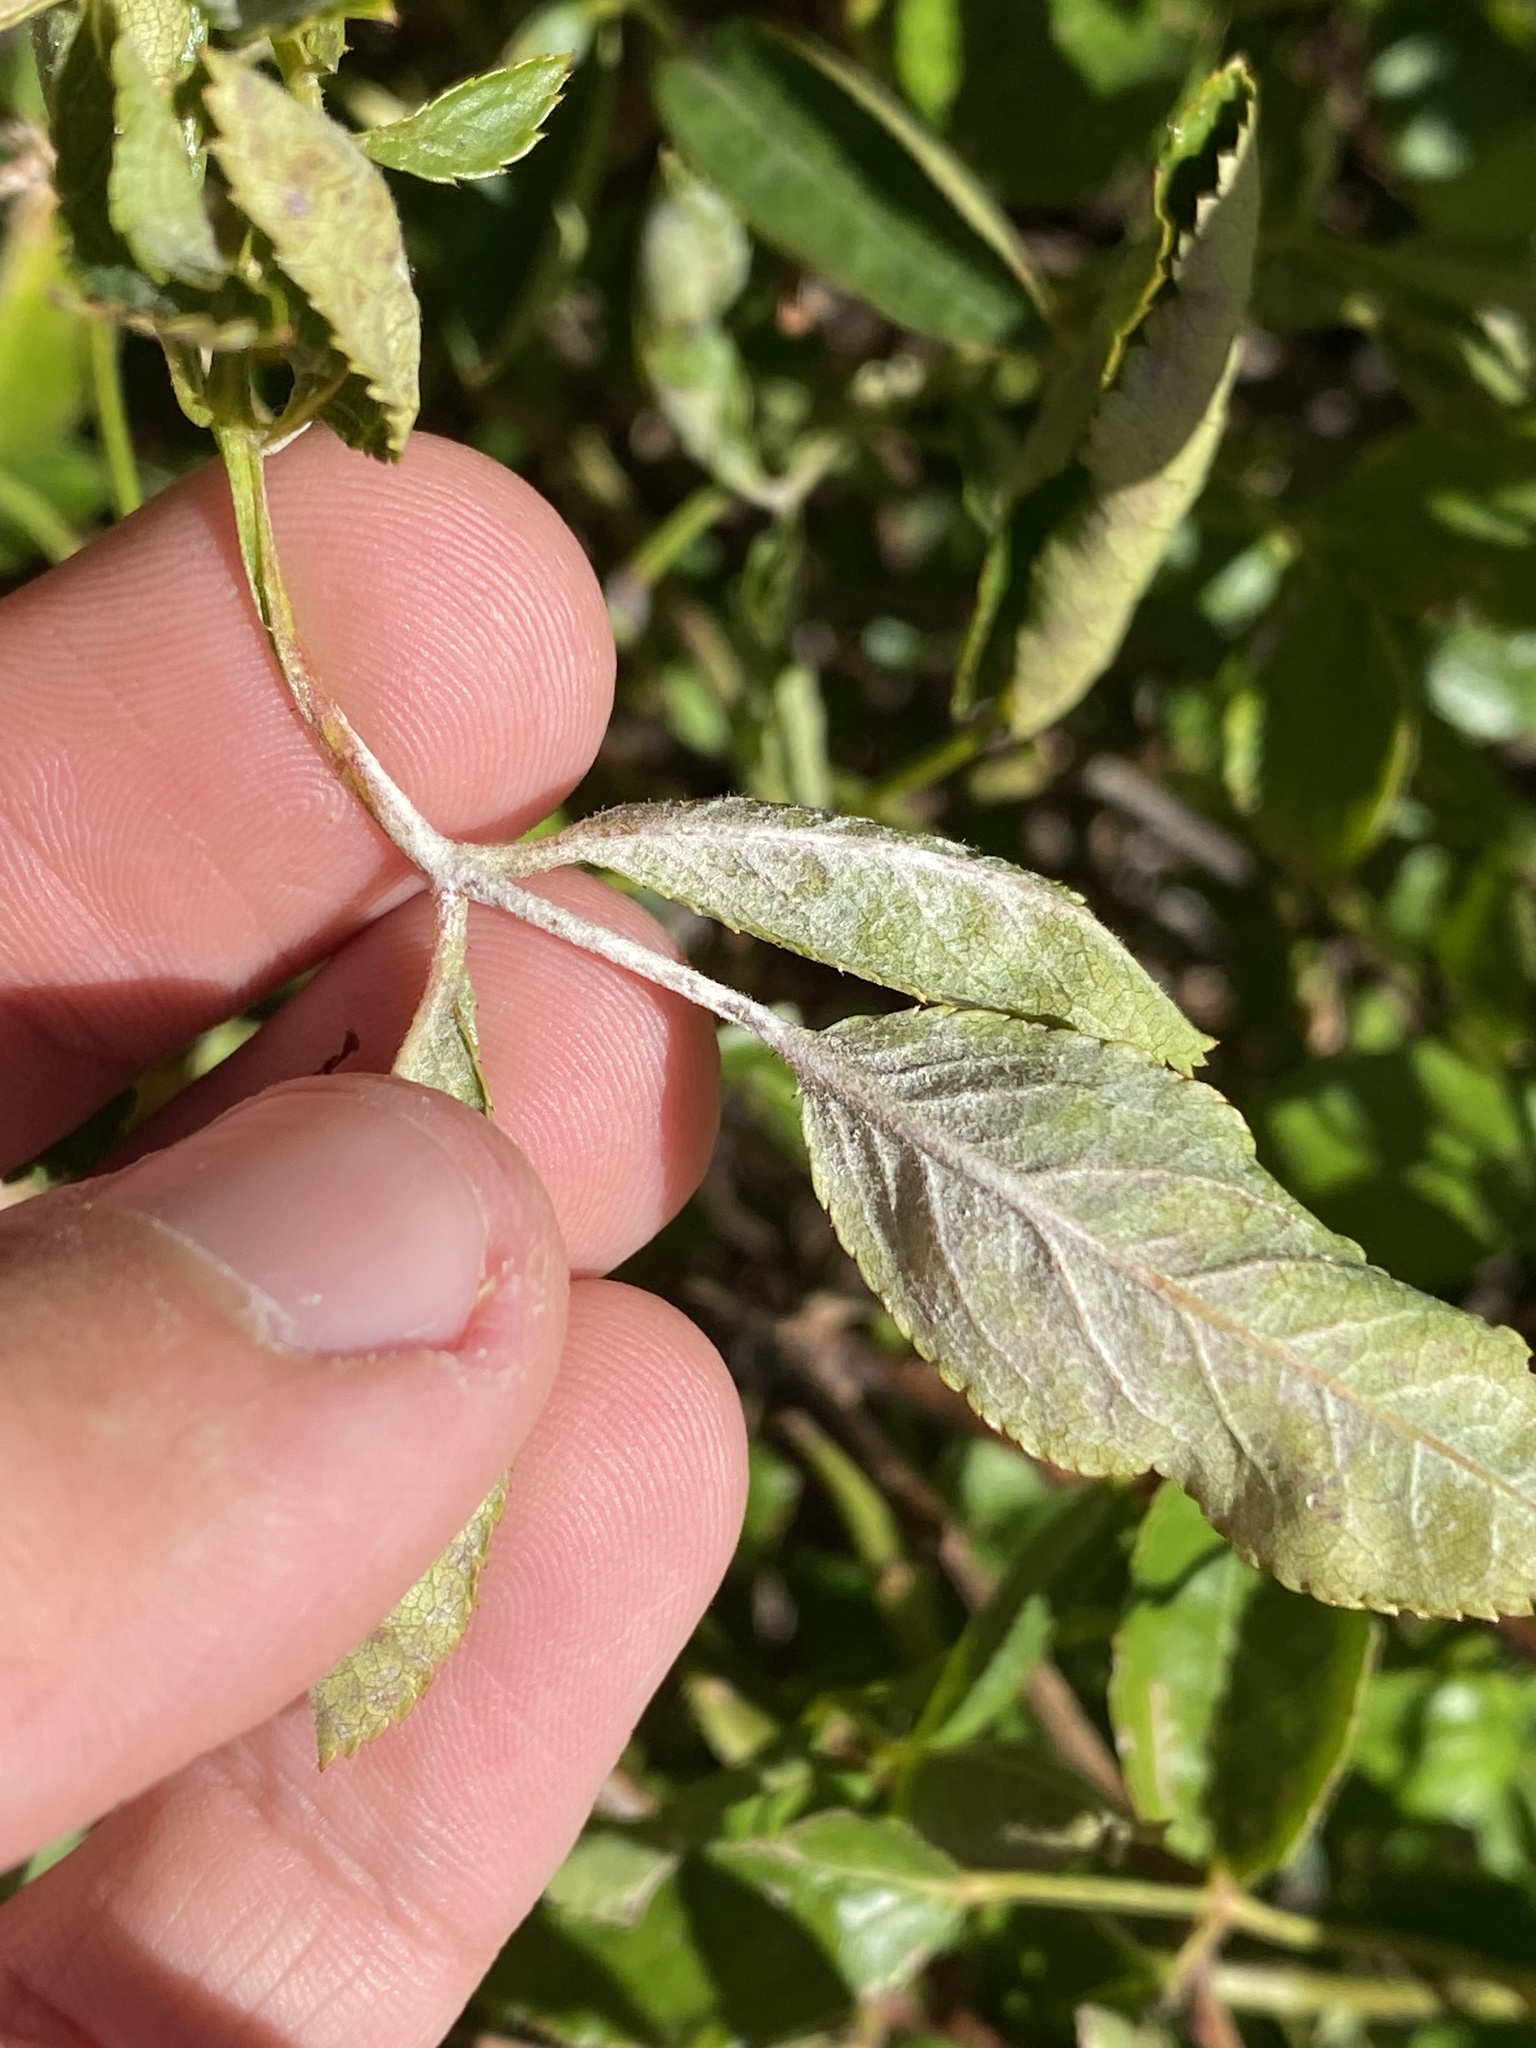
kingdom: Fungi
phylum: Ascomycota
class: Leotiomycetes
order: Helotiales
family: Erysiphaceae
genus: Podosphaera
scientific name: Podosphaera pannosa
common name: Rose mildew
